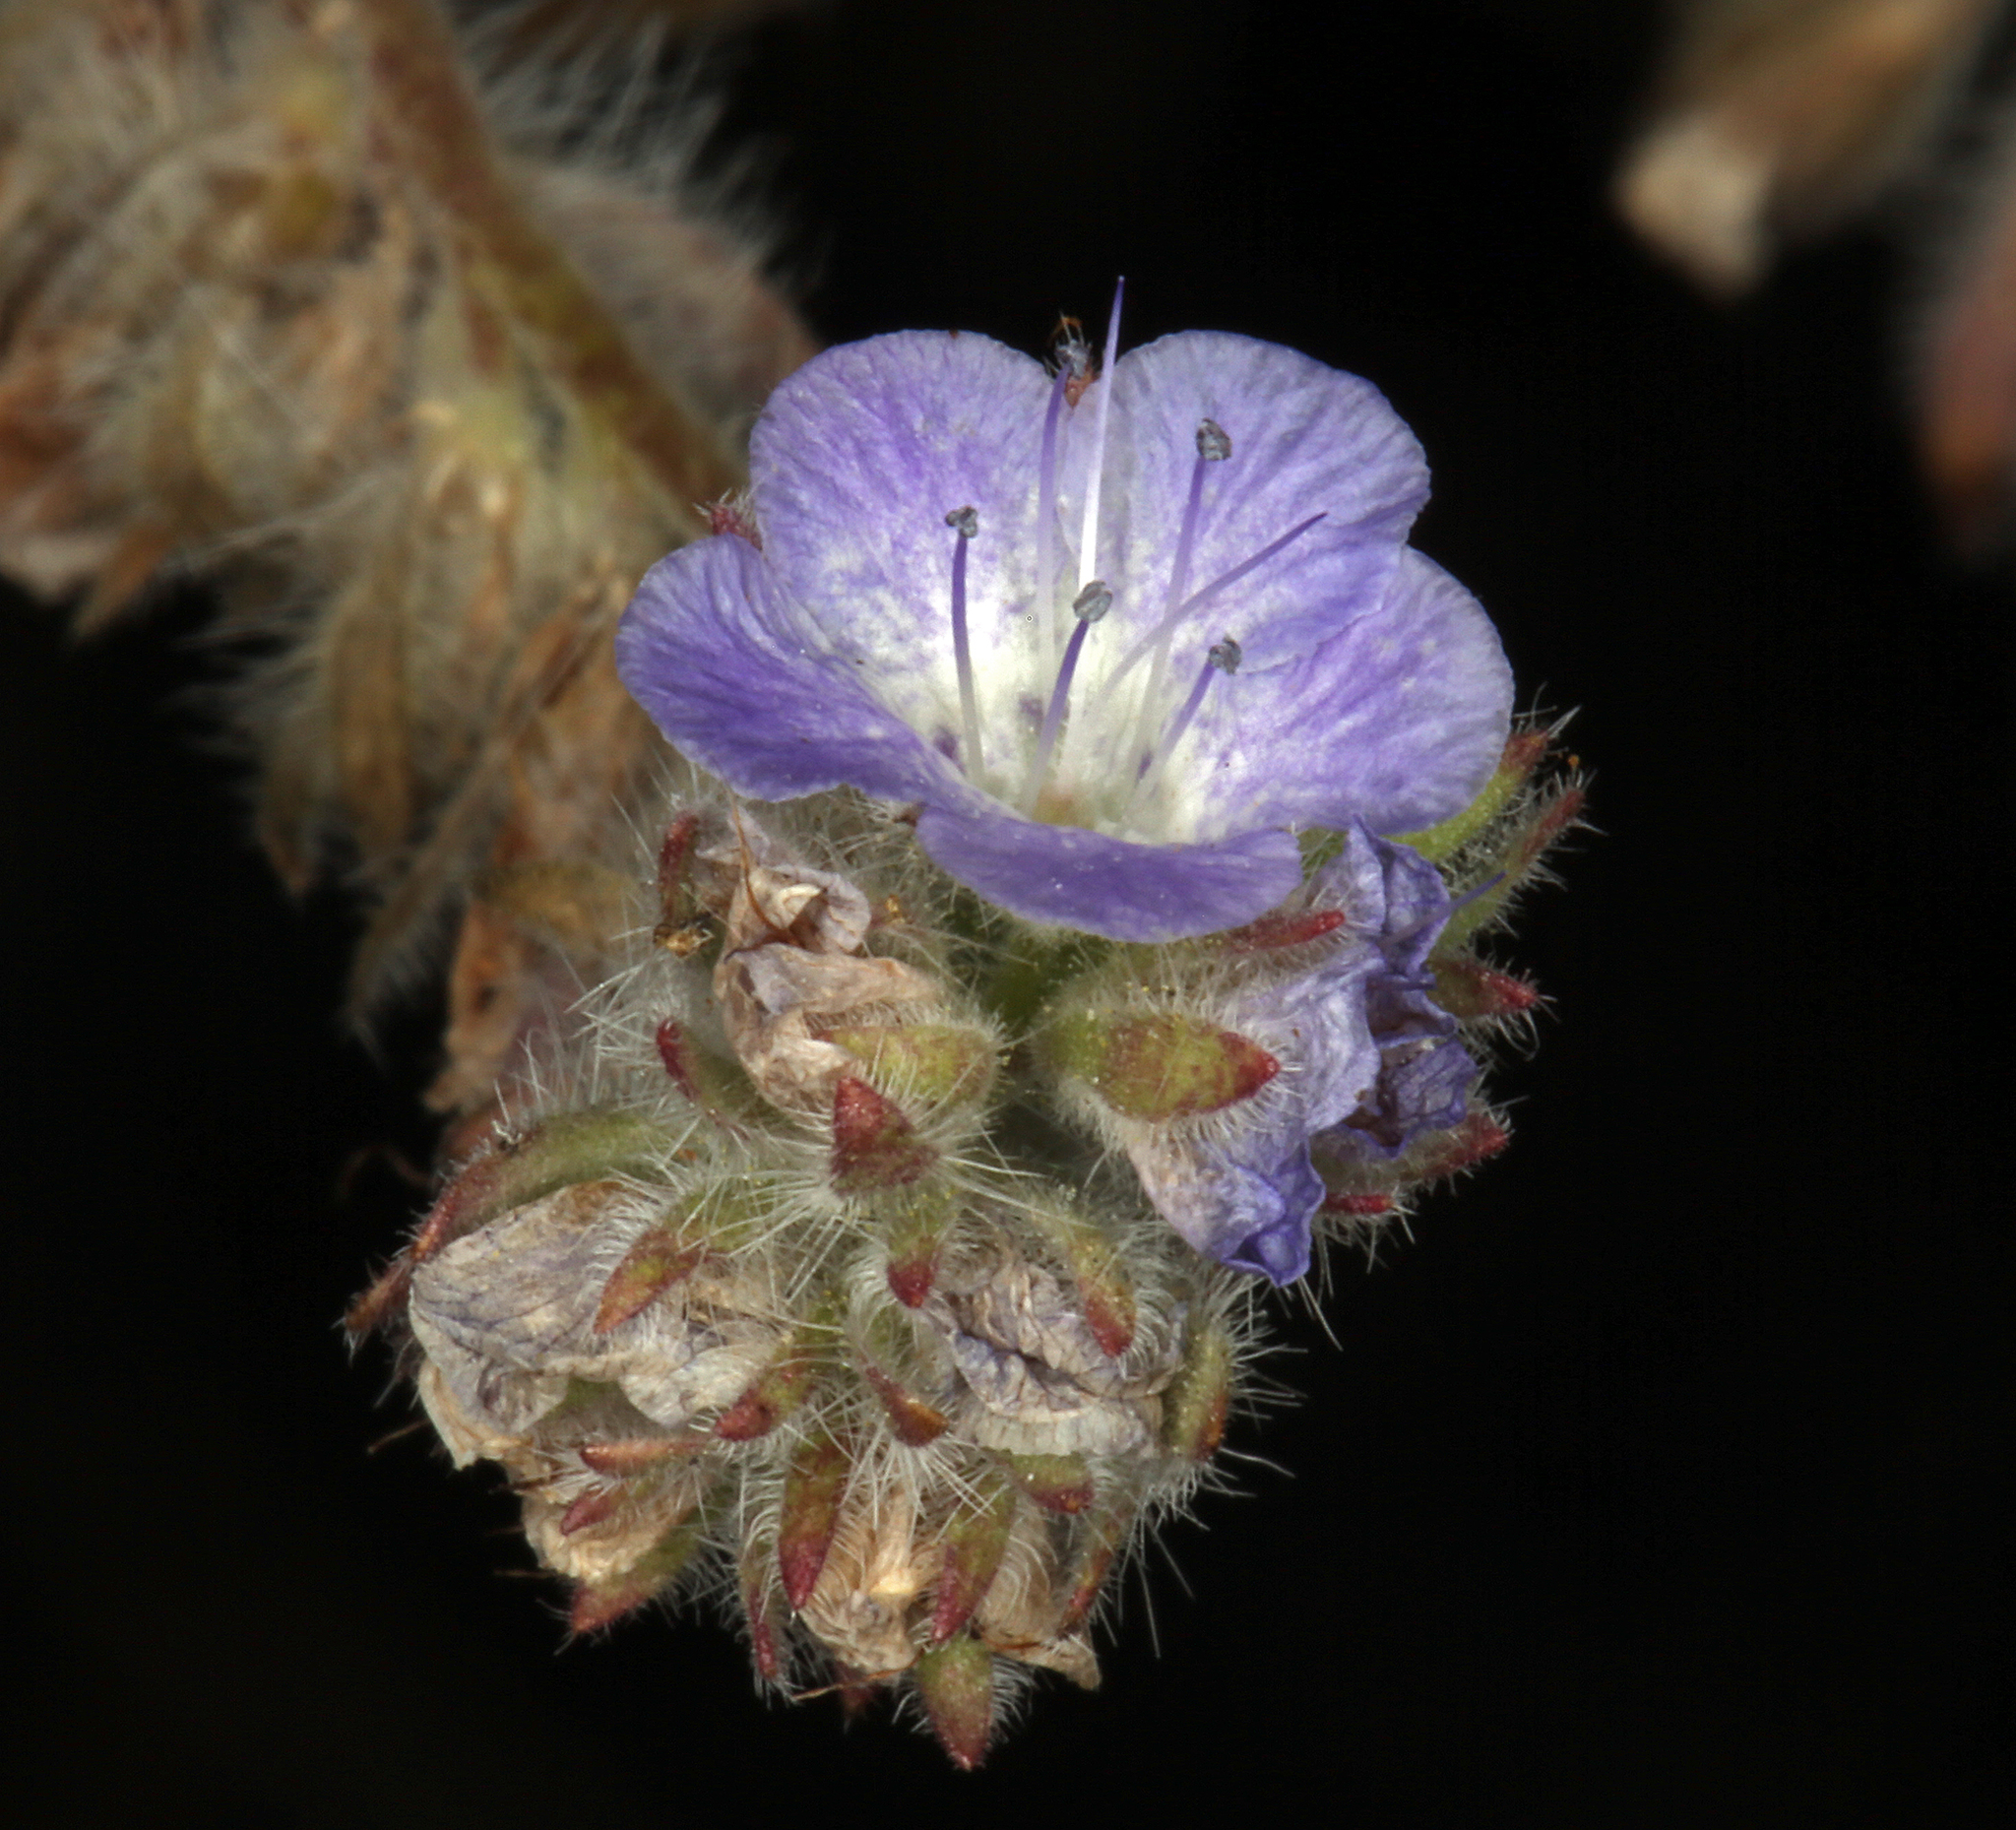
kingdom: Plantae
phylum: Tracheophyta
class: Magnoliopsida
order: Boraginales
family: Hydrophyllaceae
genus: Phacelia
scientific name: Phacelia distans
